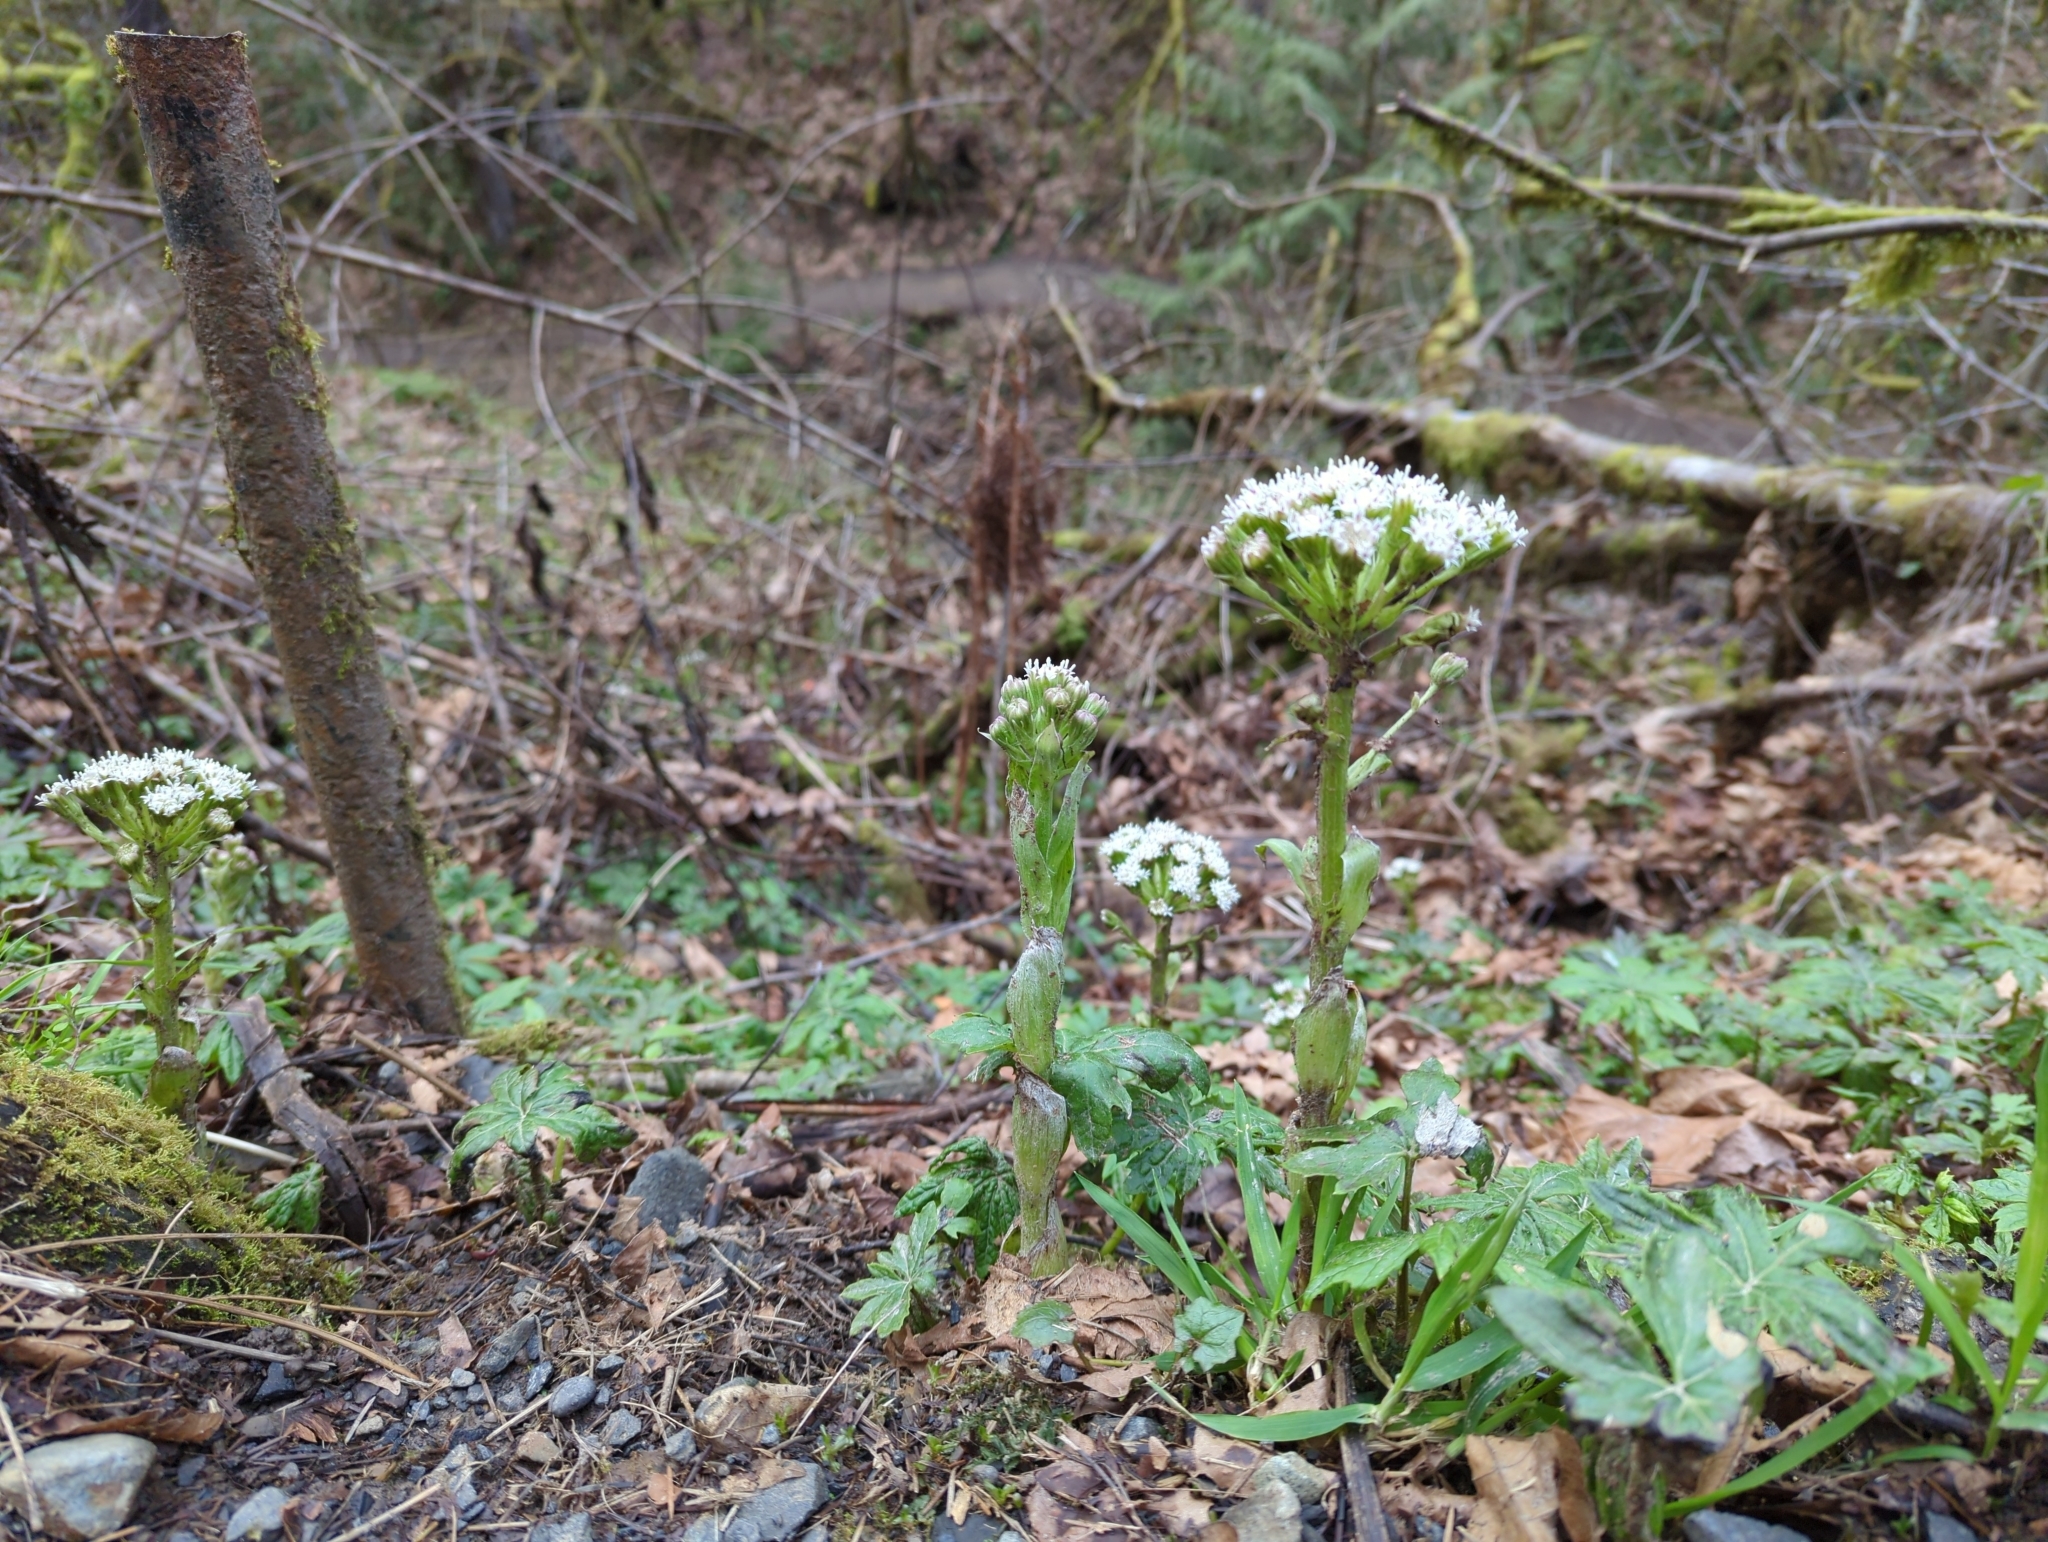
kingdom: Plantae
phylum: Tracheophyta
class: Magnoliopsida
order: Asterales
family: Asteraceae
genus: Petasites
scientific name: Petasites frigidus
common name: Arctic butterbur
